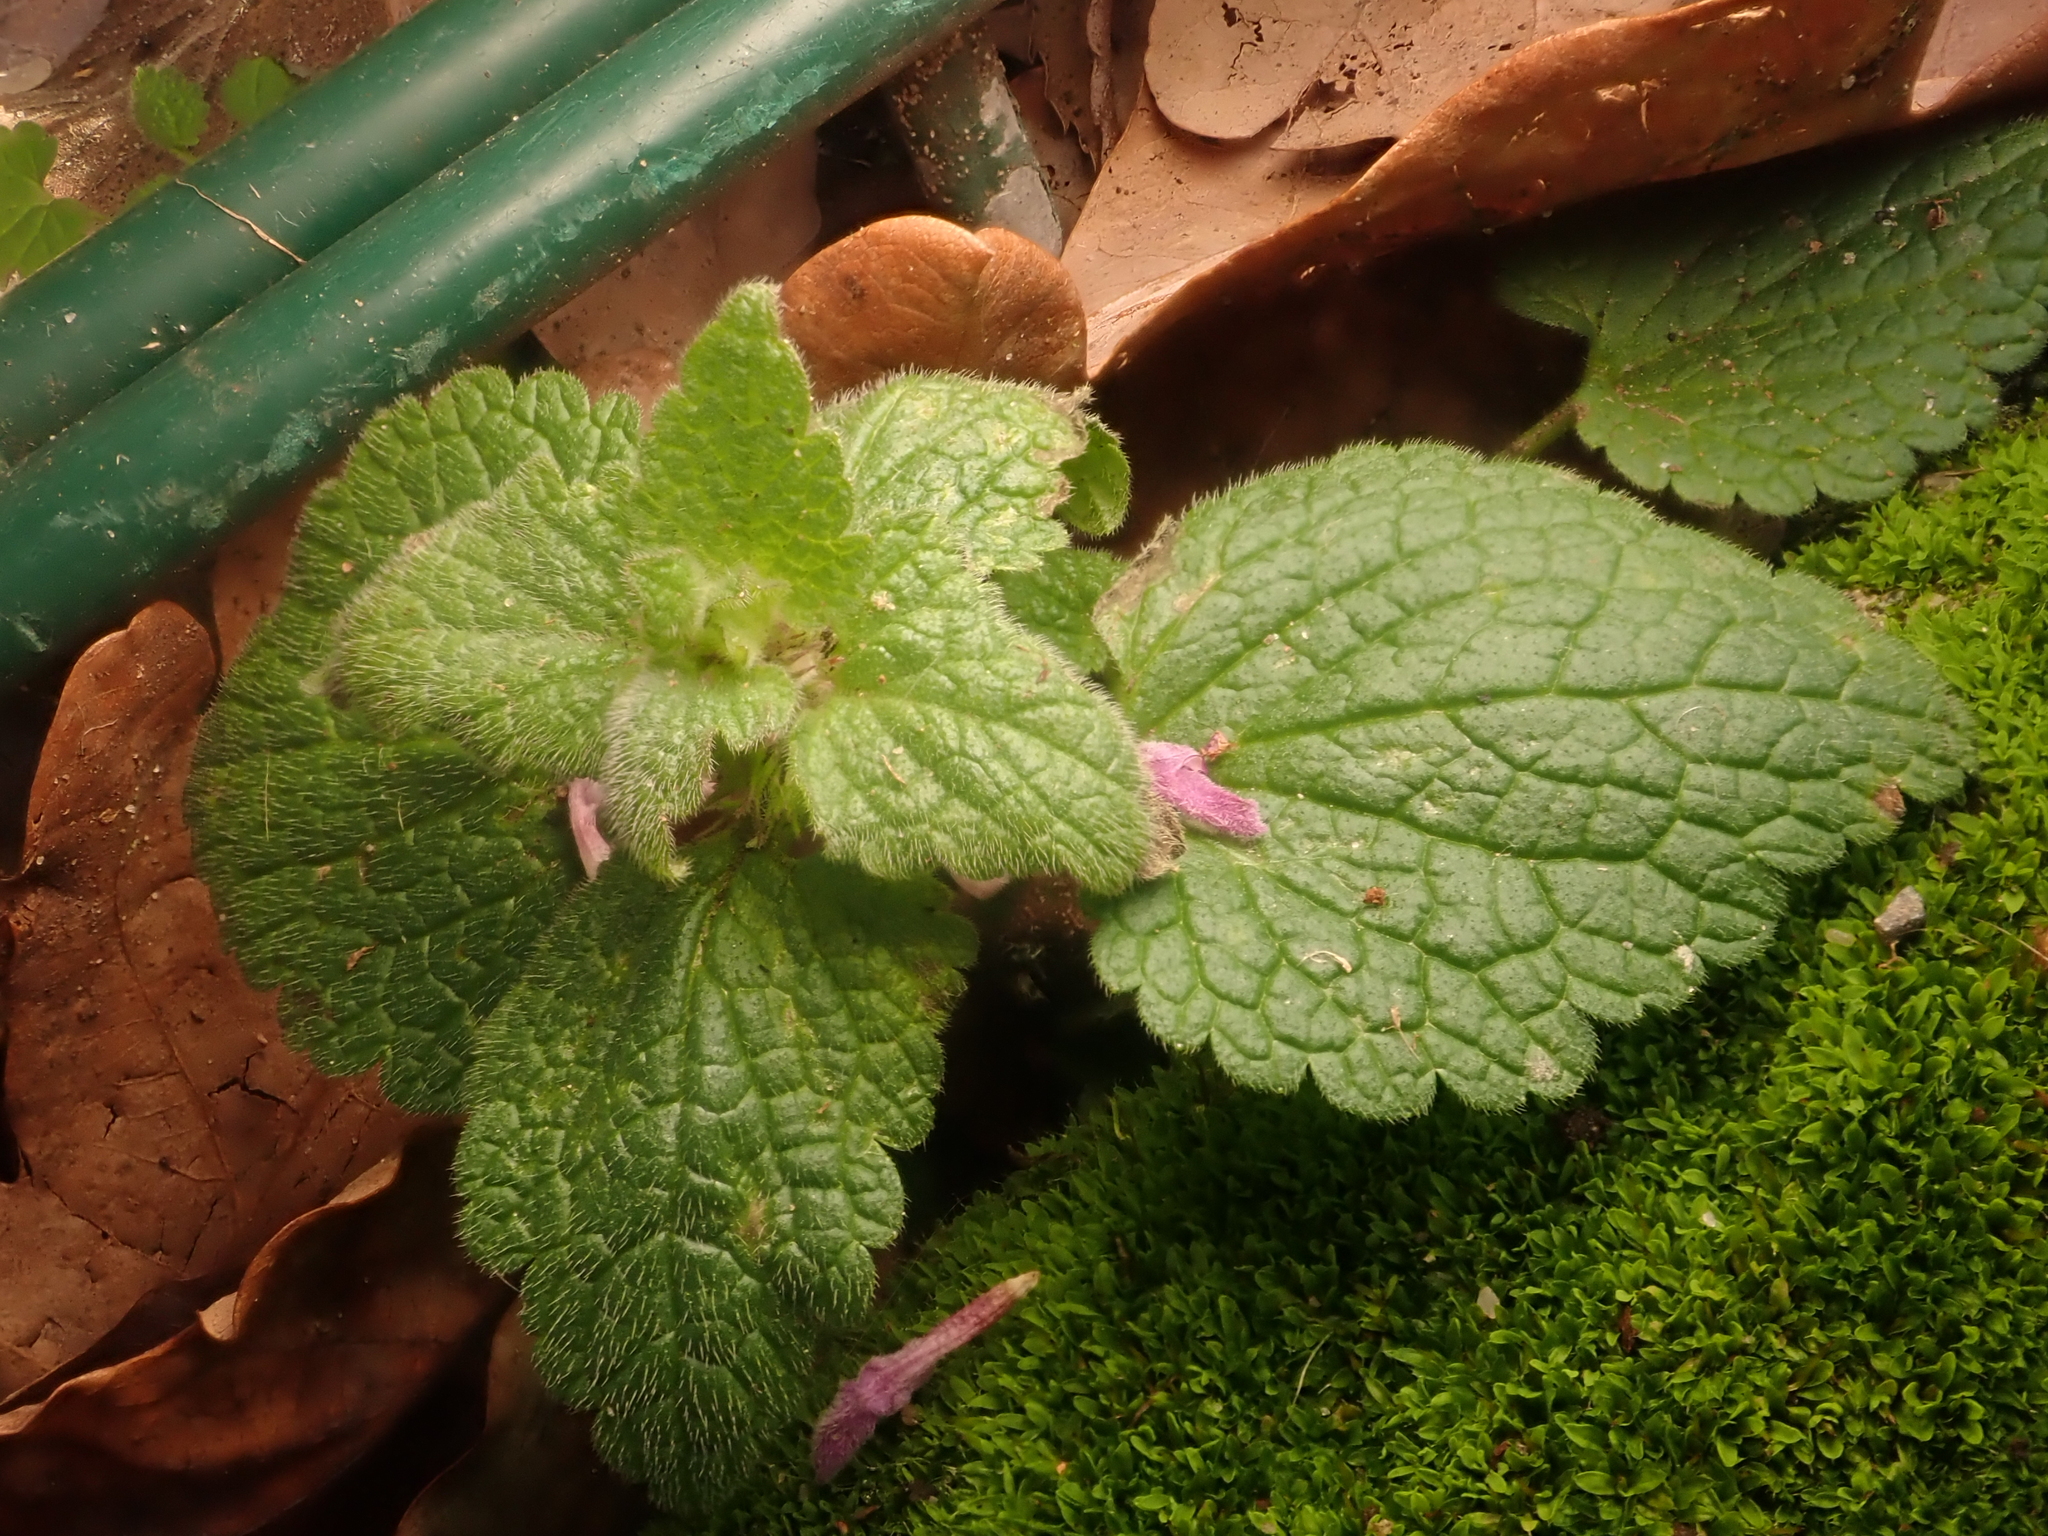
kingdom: Plantae
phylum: Tracheophyta
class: Magnoliopsida
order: Lamiales
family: Lamiaceae
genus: Lamium
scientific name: Lamium purpureum
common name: Red dead-nettle
